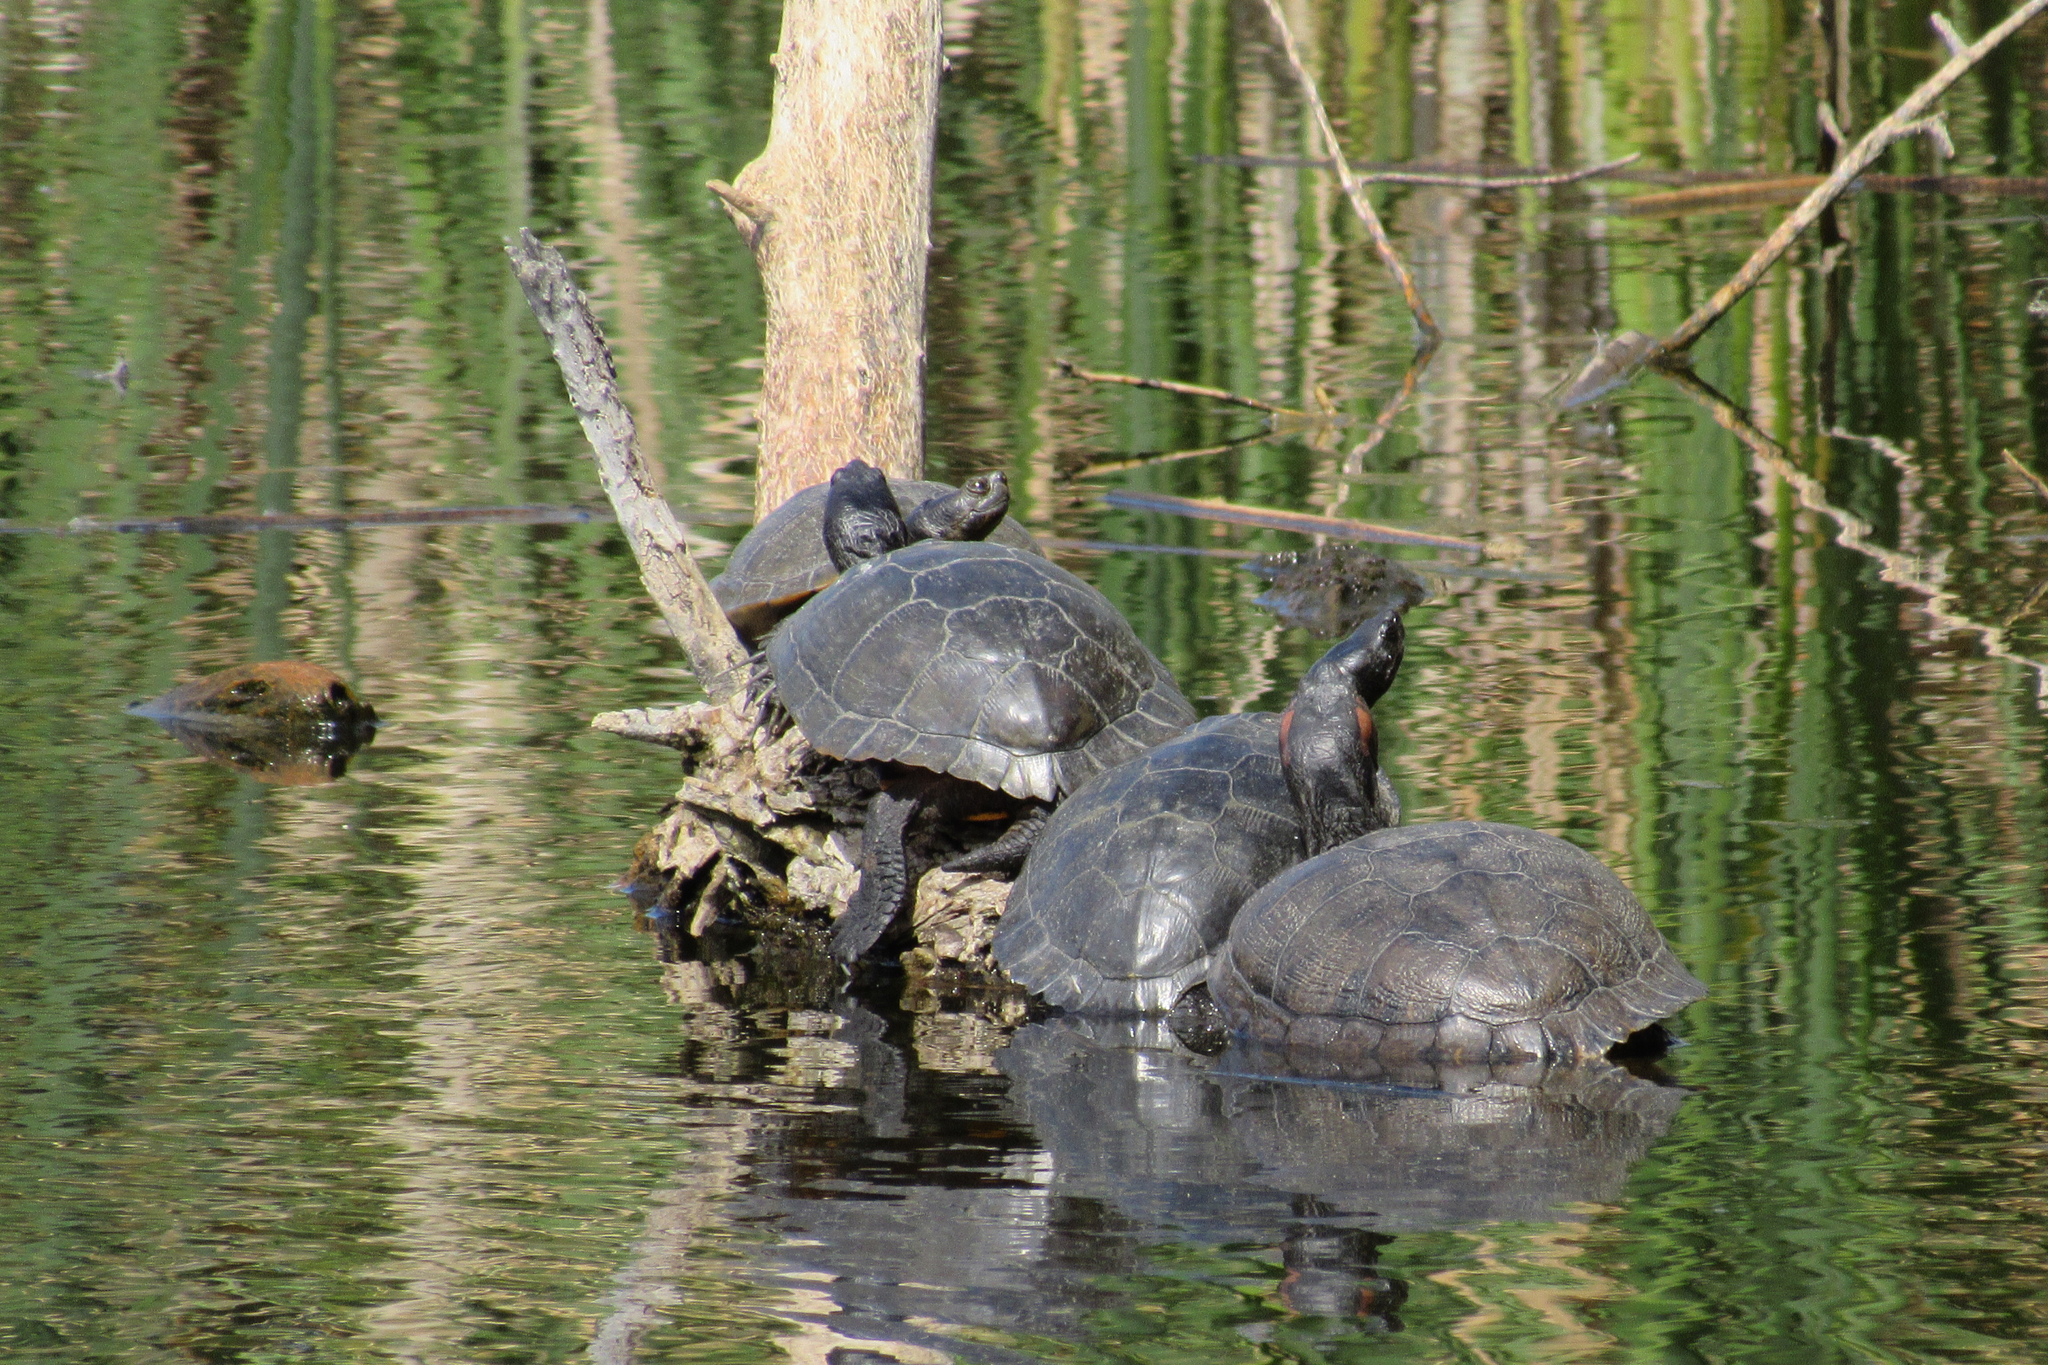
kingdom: Animalia
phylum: Chordata
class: Testudines
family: Emydidae
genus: Trachemys
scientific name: Trachemys scripta
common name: Slider
